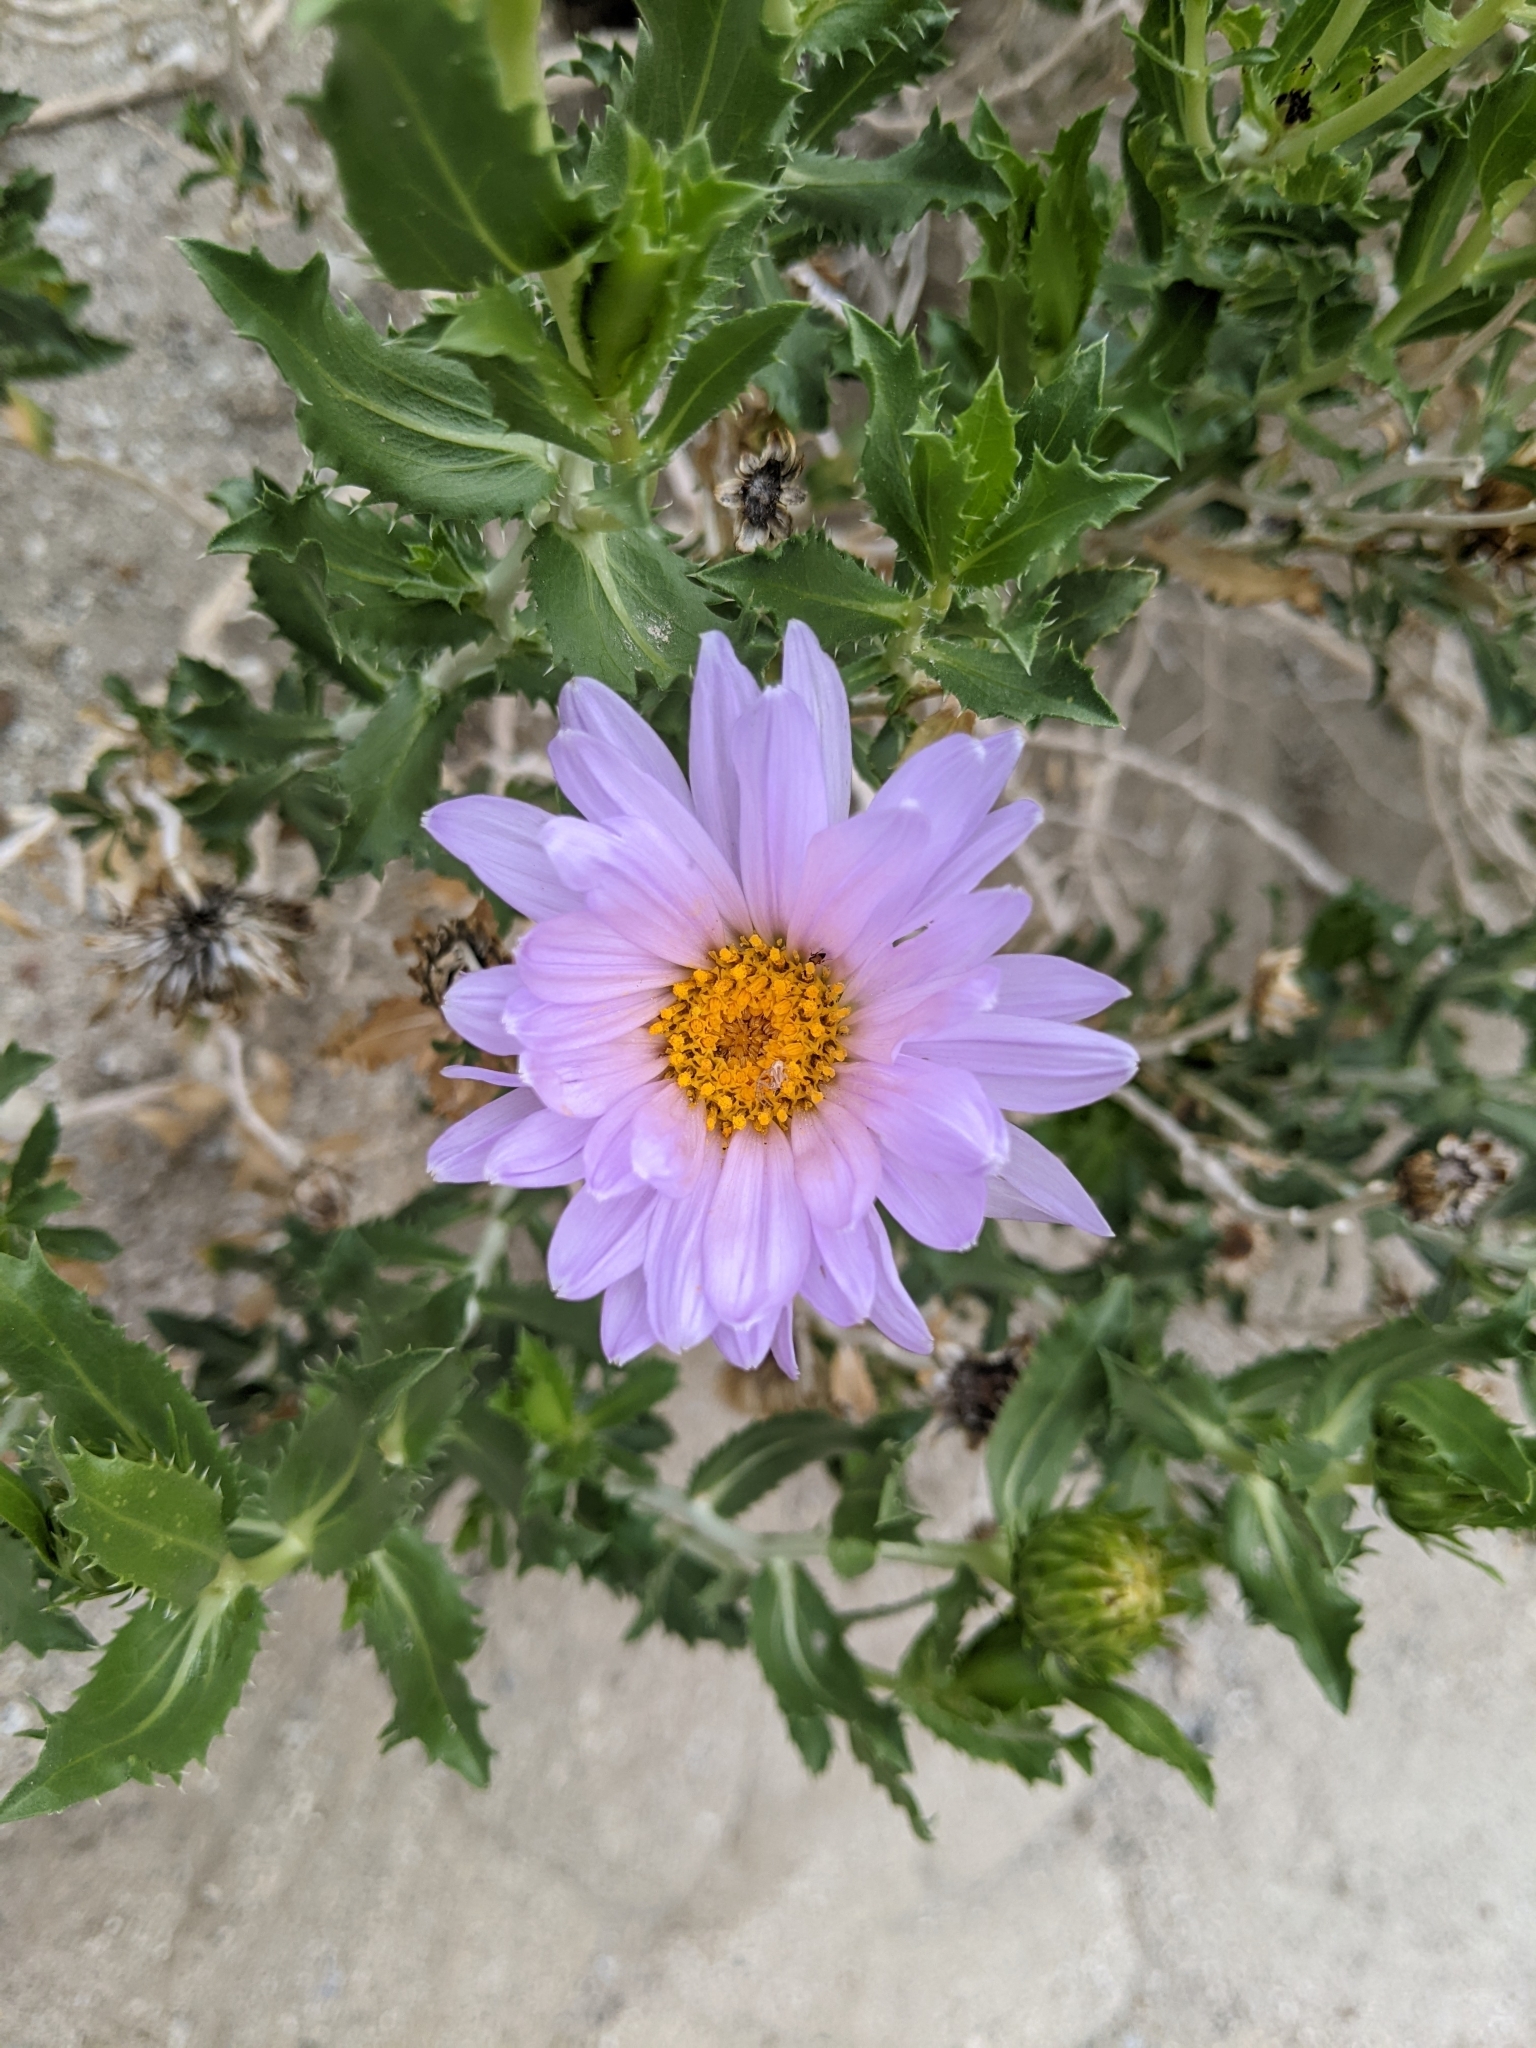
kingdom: Plantae
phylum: Tracheophyta
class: Magnoliopsida
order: Asterales
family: Asteraceae
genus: Xylorhiza
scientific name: Xylorhiza orcuttii
